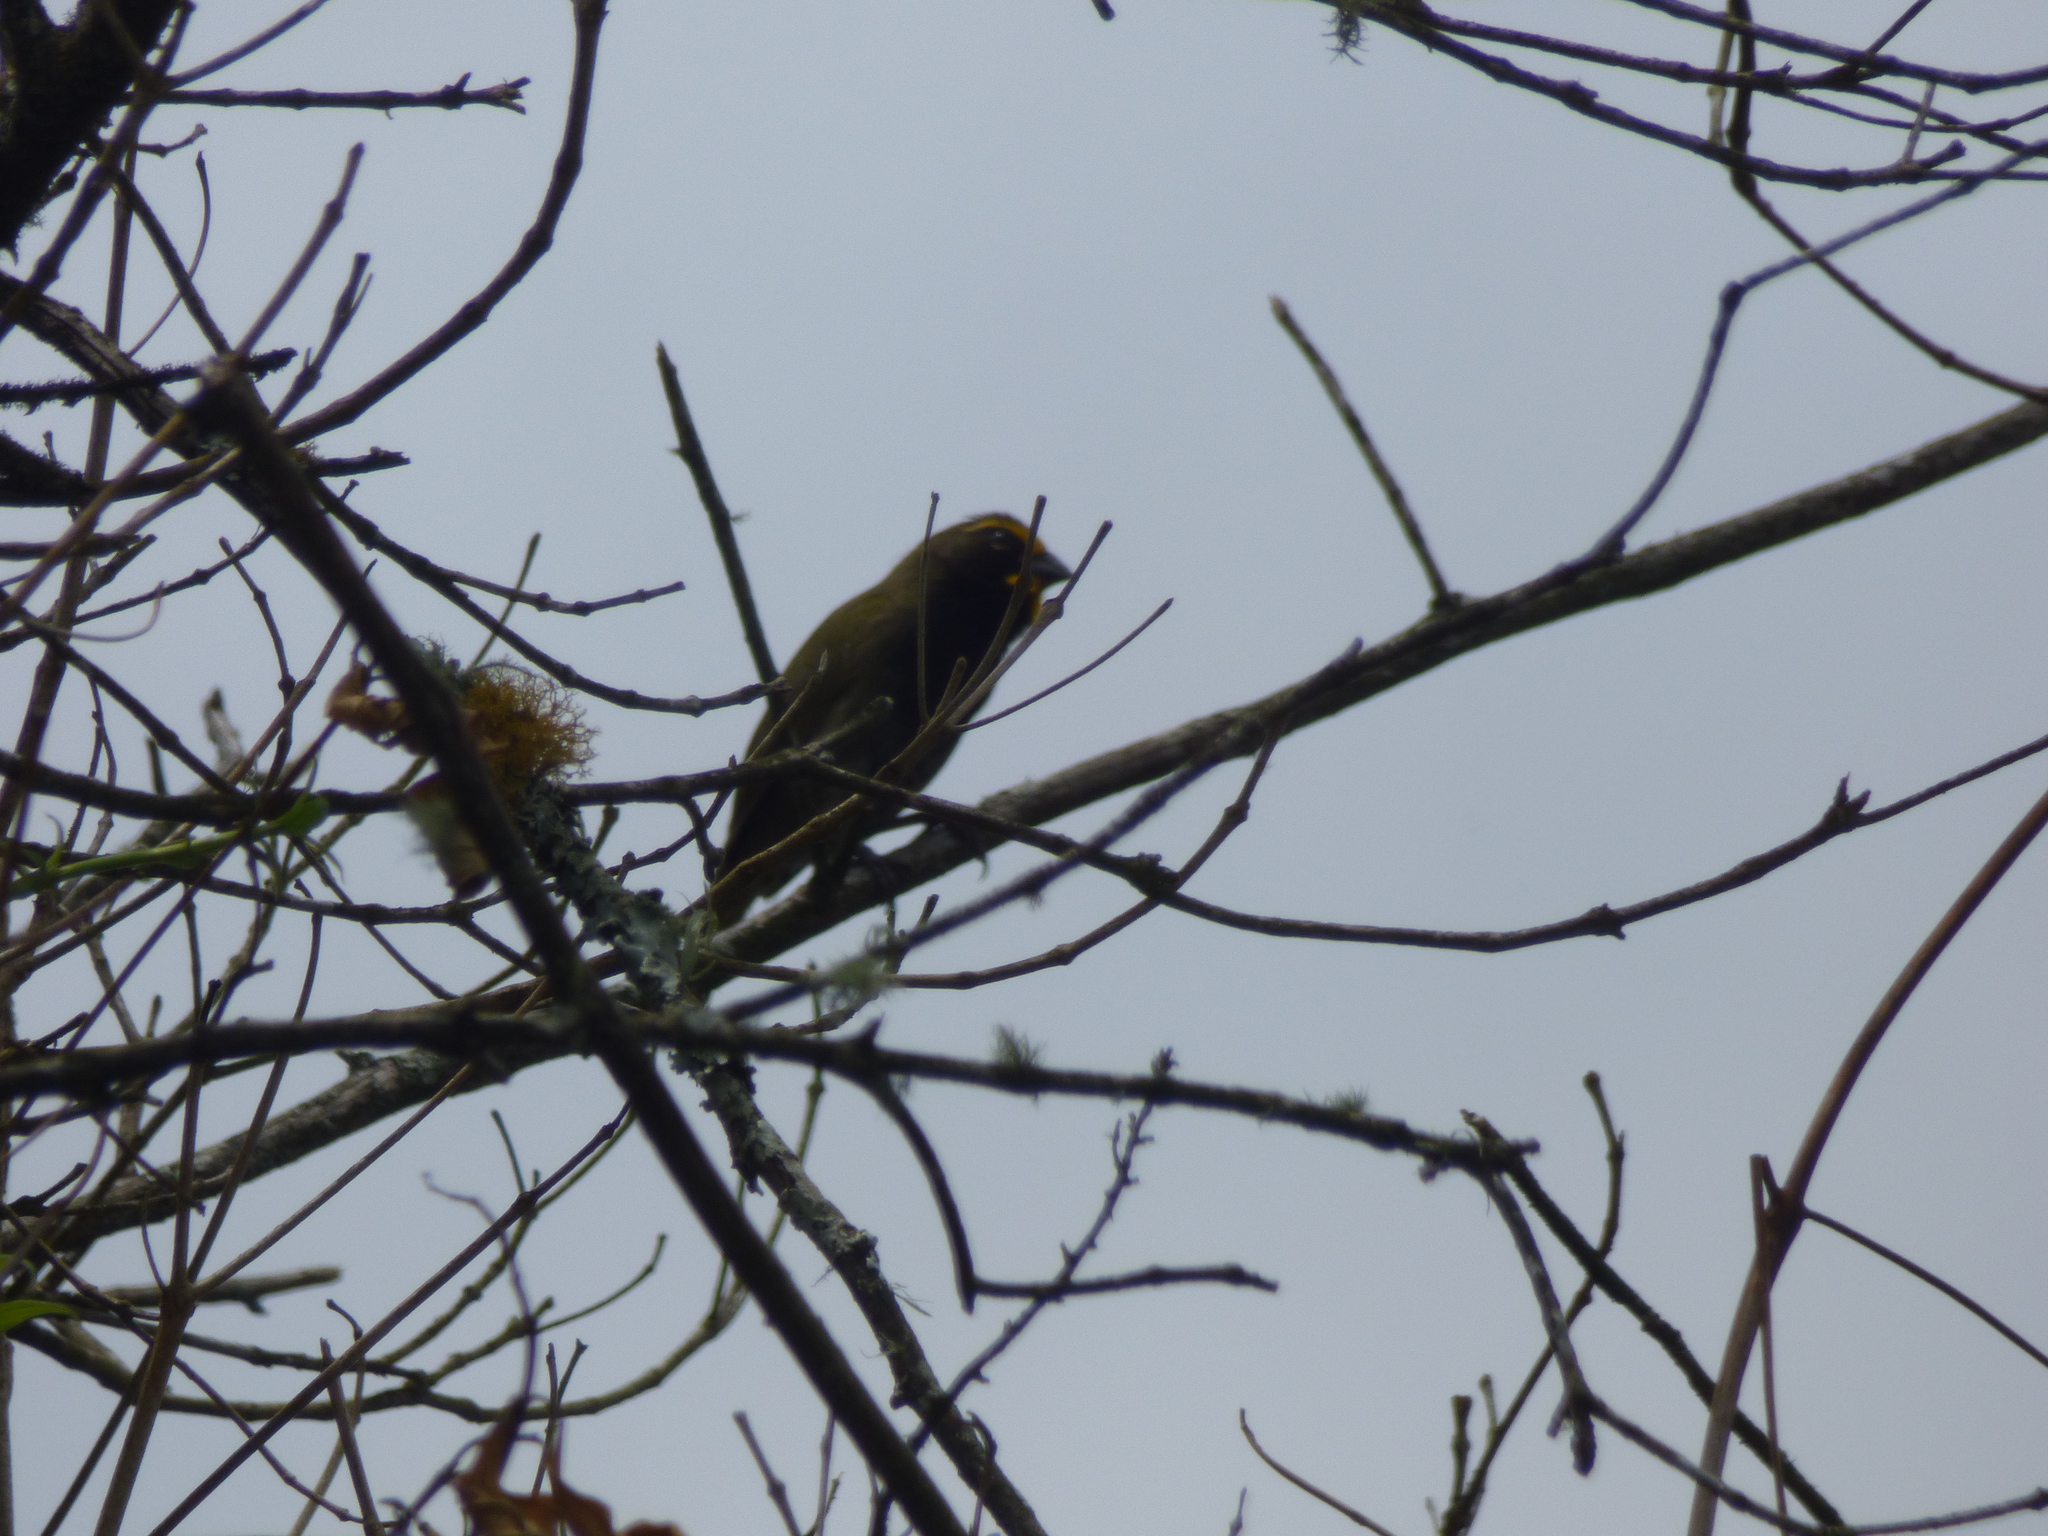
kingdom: Animalia
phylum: Chordata
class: Aves
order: Passeriformes
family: Thraupidae
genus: Tiaris
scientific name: Tiaris olivaceus
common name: Yellow-faced grassquit
